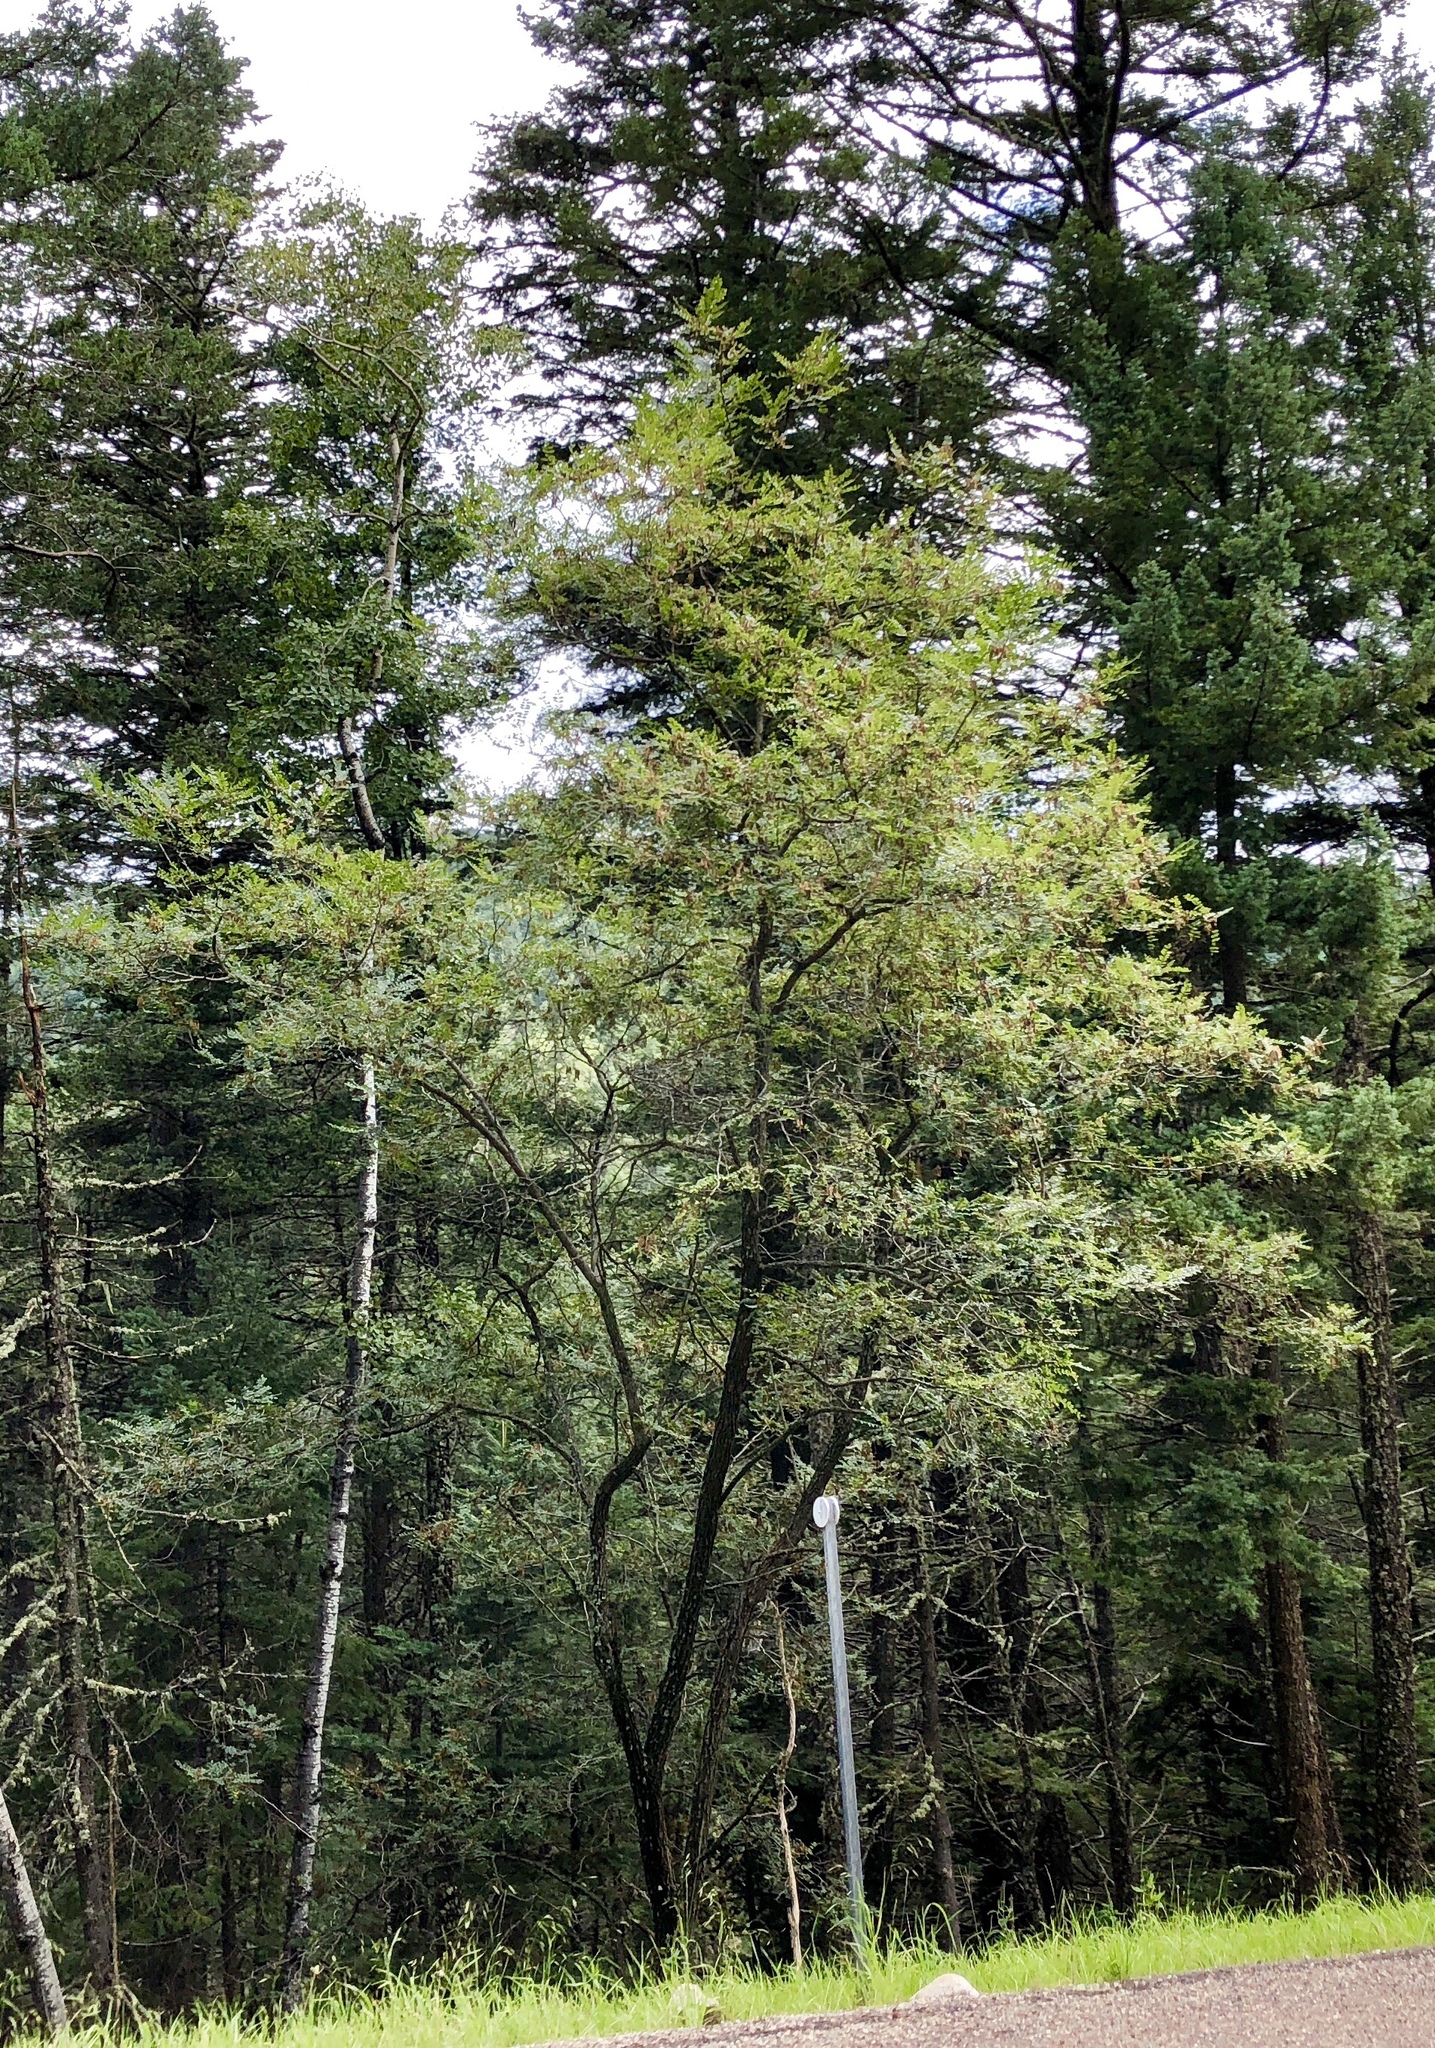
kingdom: Plantae
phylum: Tracheophyta
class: Magnoliopsida
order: Fabales
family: Fabaceae
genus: Robinia
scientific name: Robinia neomexicana
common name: New mexico locust
